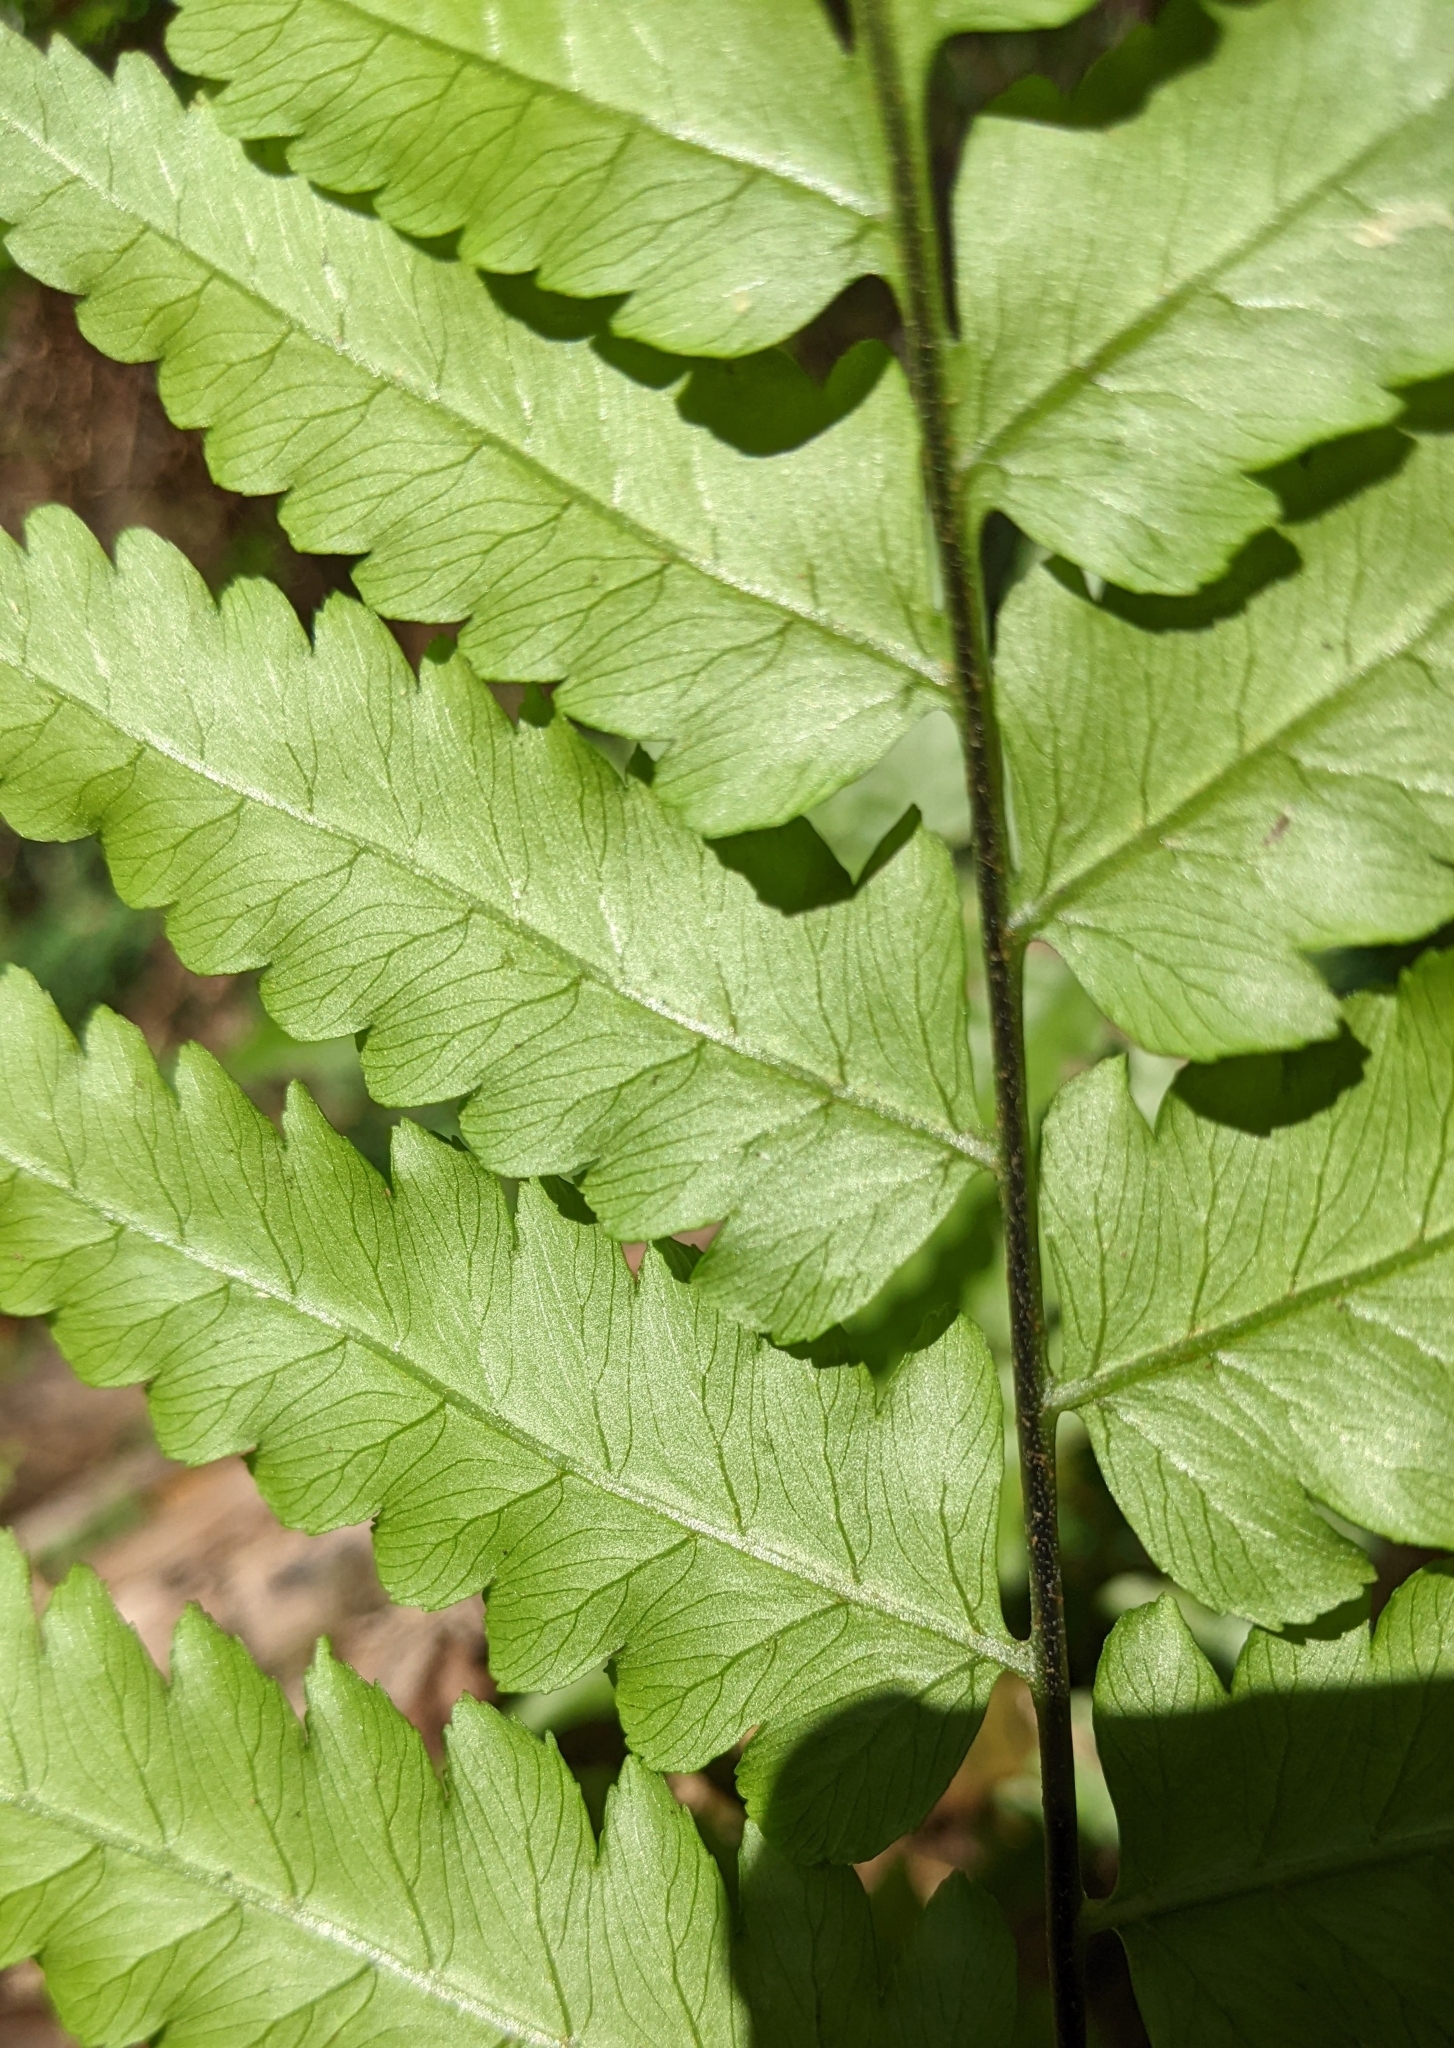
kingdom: Plantae
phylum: Tracheophyta
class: Polypodiopsida
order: Polypodiales
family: Athyriaceae
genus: Diplazium
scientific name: Diplazium taiwanense
